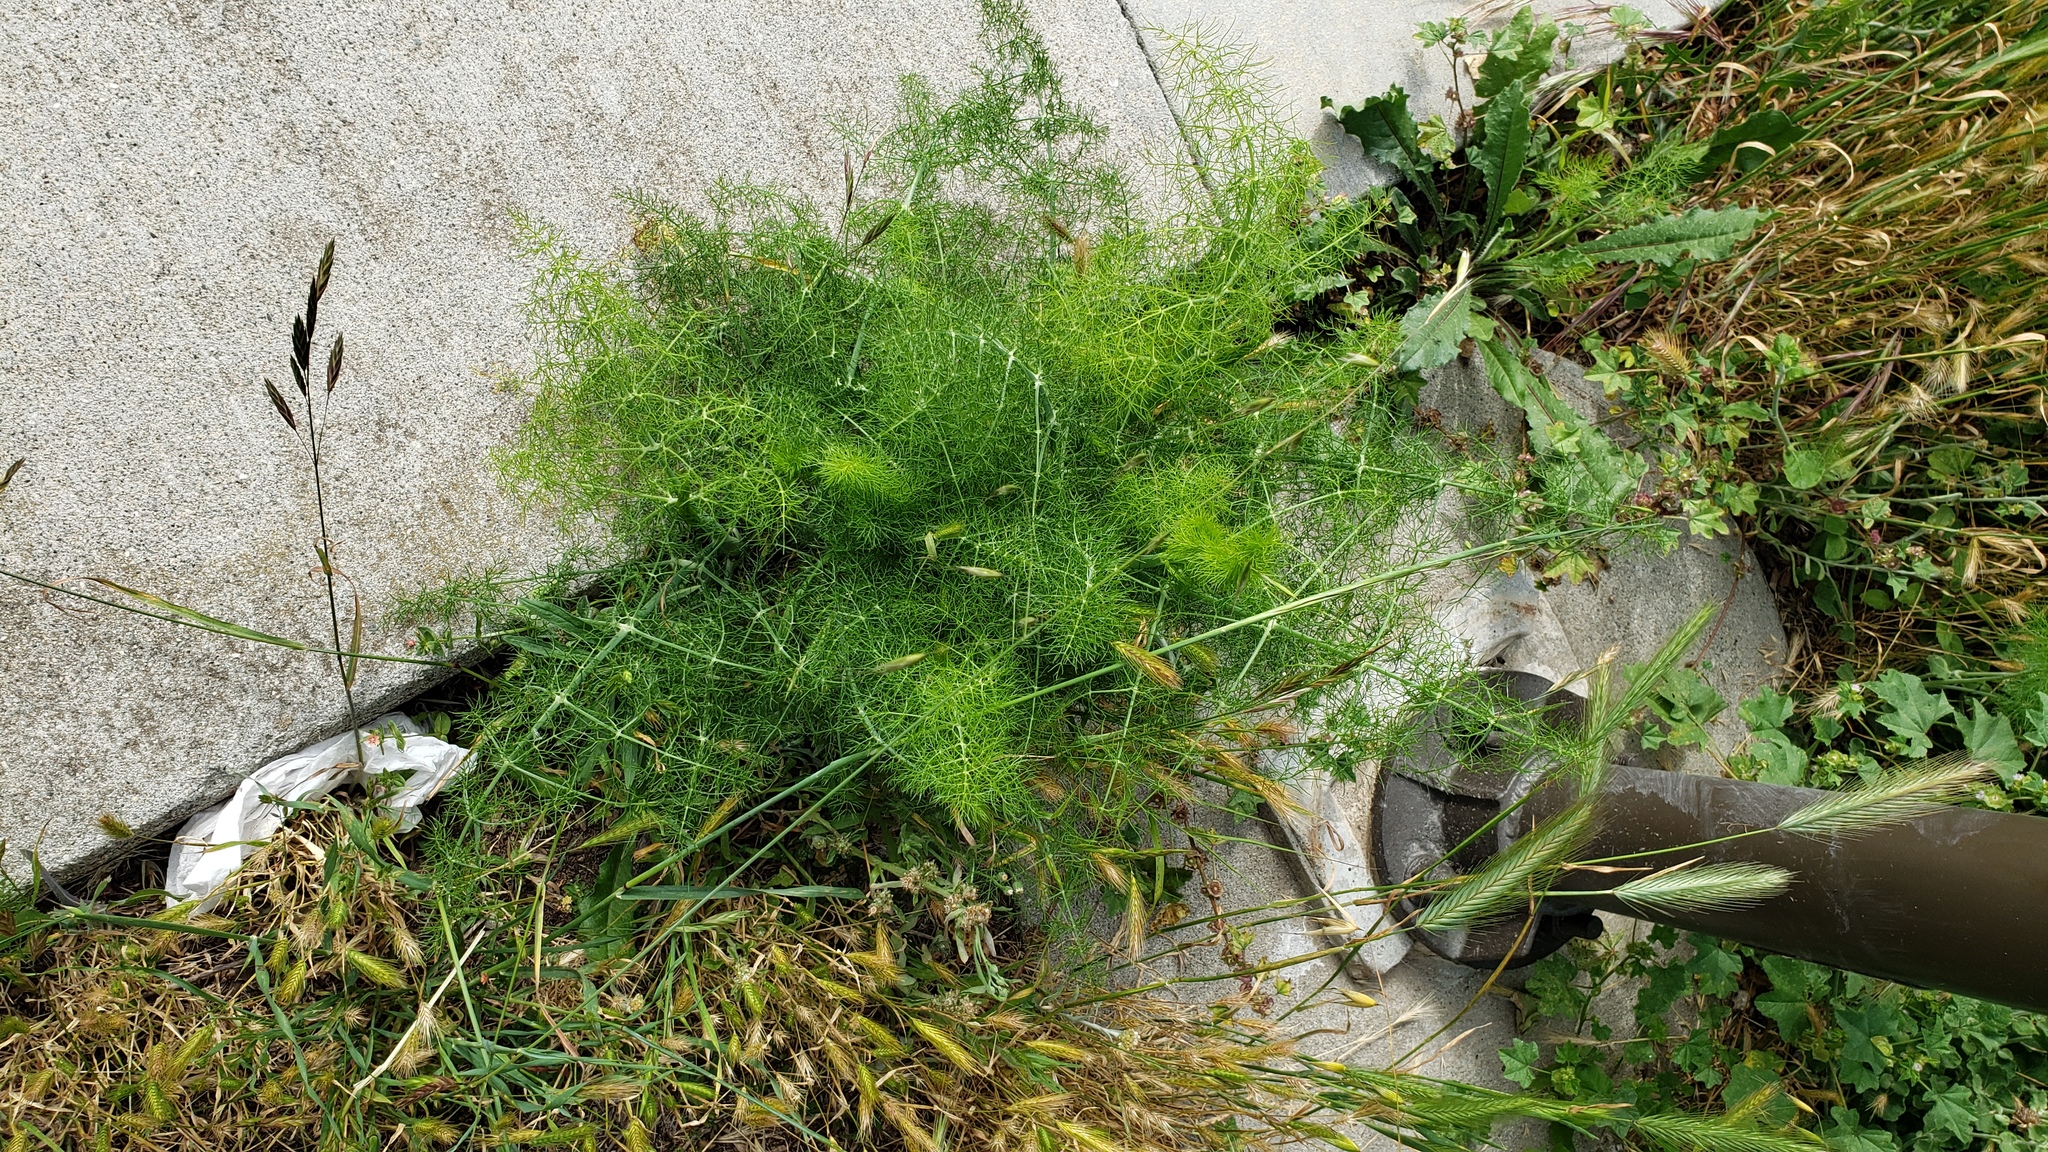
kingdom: Plantae
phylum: Tracheophyta
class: Magnoliopsida
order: Apiales
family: Apiaceae
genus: Foeniculum
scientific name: Foeniculum vulgare
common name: Fennel
